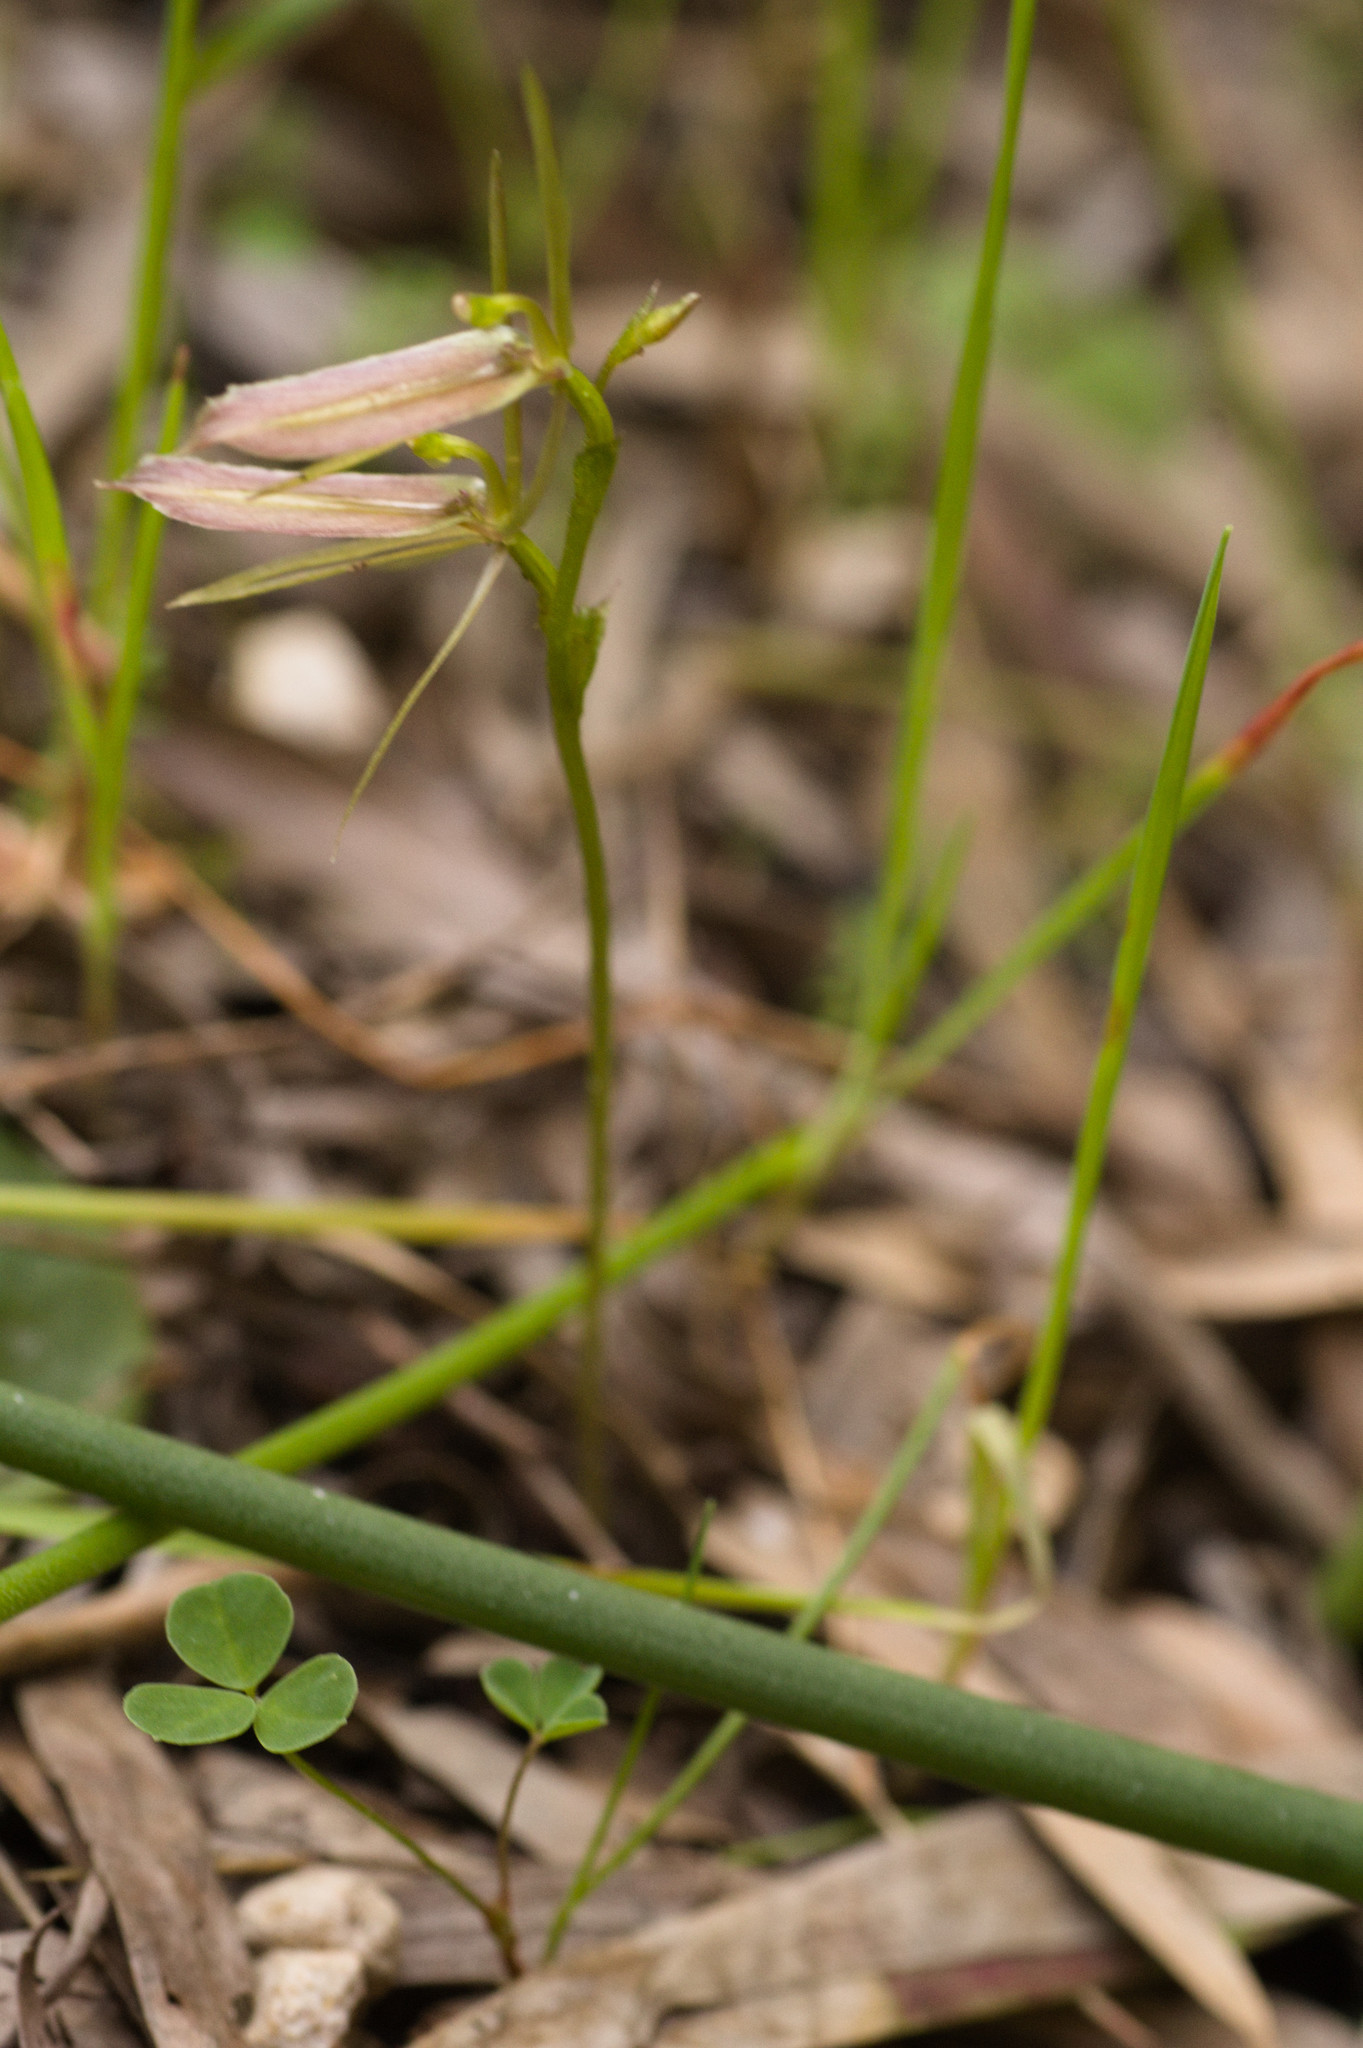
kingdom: Plantae
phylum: Tracheophyta
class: Liliopsida
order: Asparagales
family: Orchidaceae
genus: Cyrtostylis
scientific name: Cyrtostylis robusta
